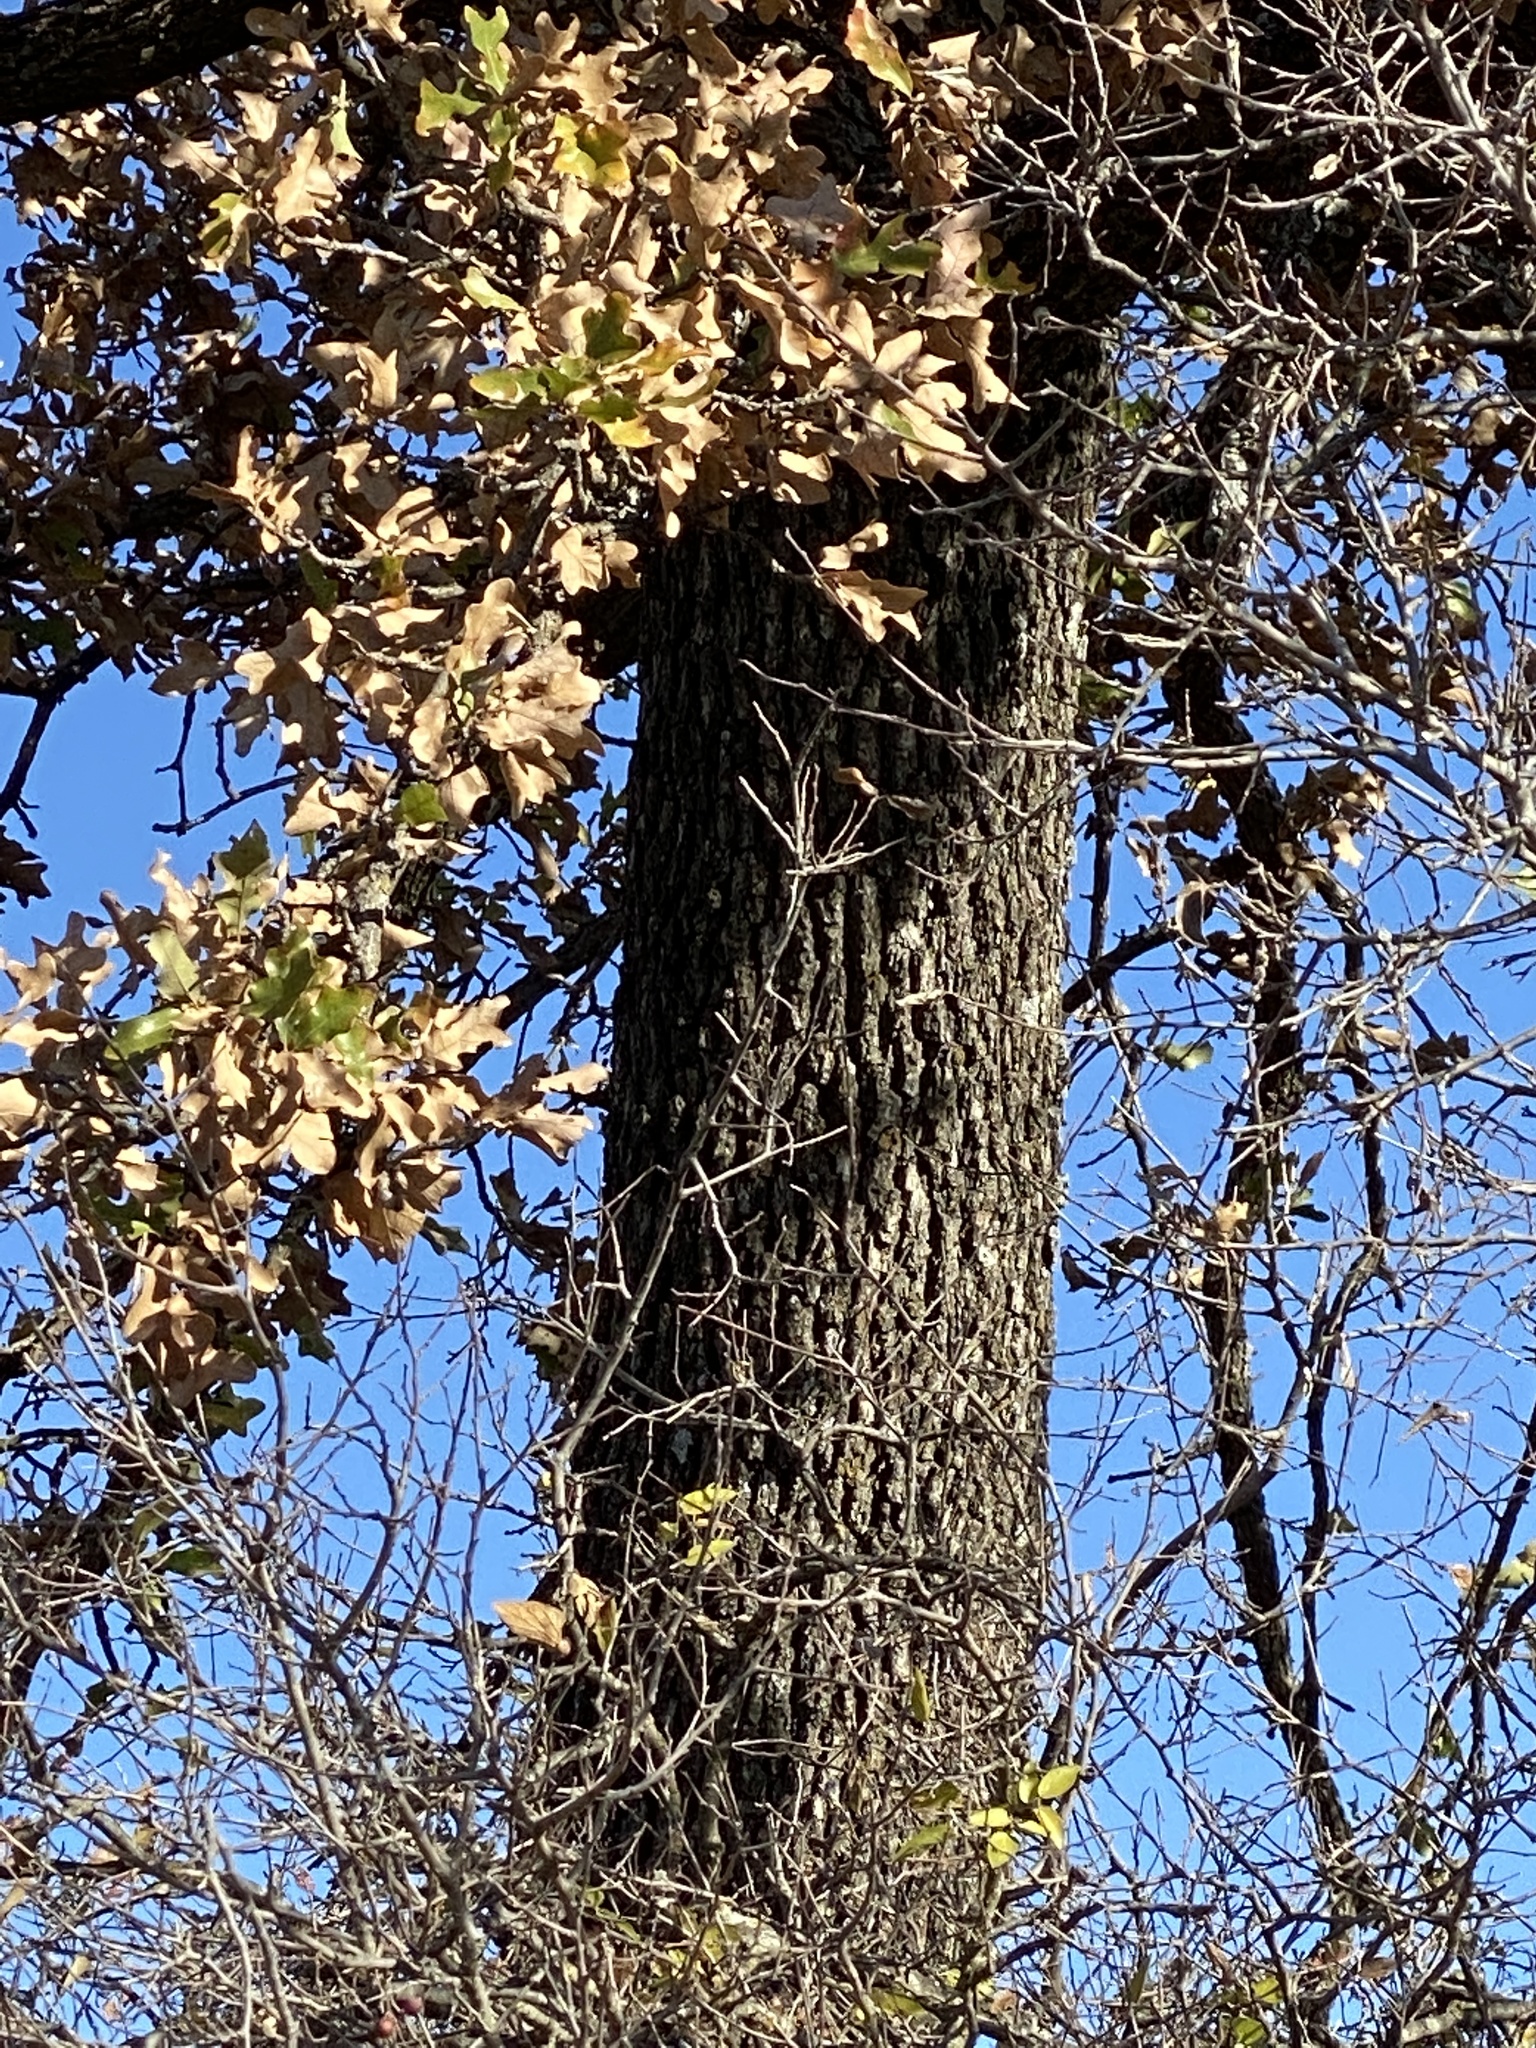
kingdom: Plantae
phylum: Tracheophyta
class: Magnoliopsida
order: Fagales
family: Fagaceae
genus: Quercus
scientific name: Quercus stellata
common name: Post oak
